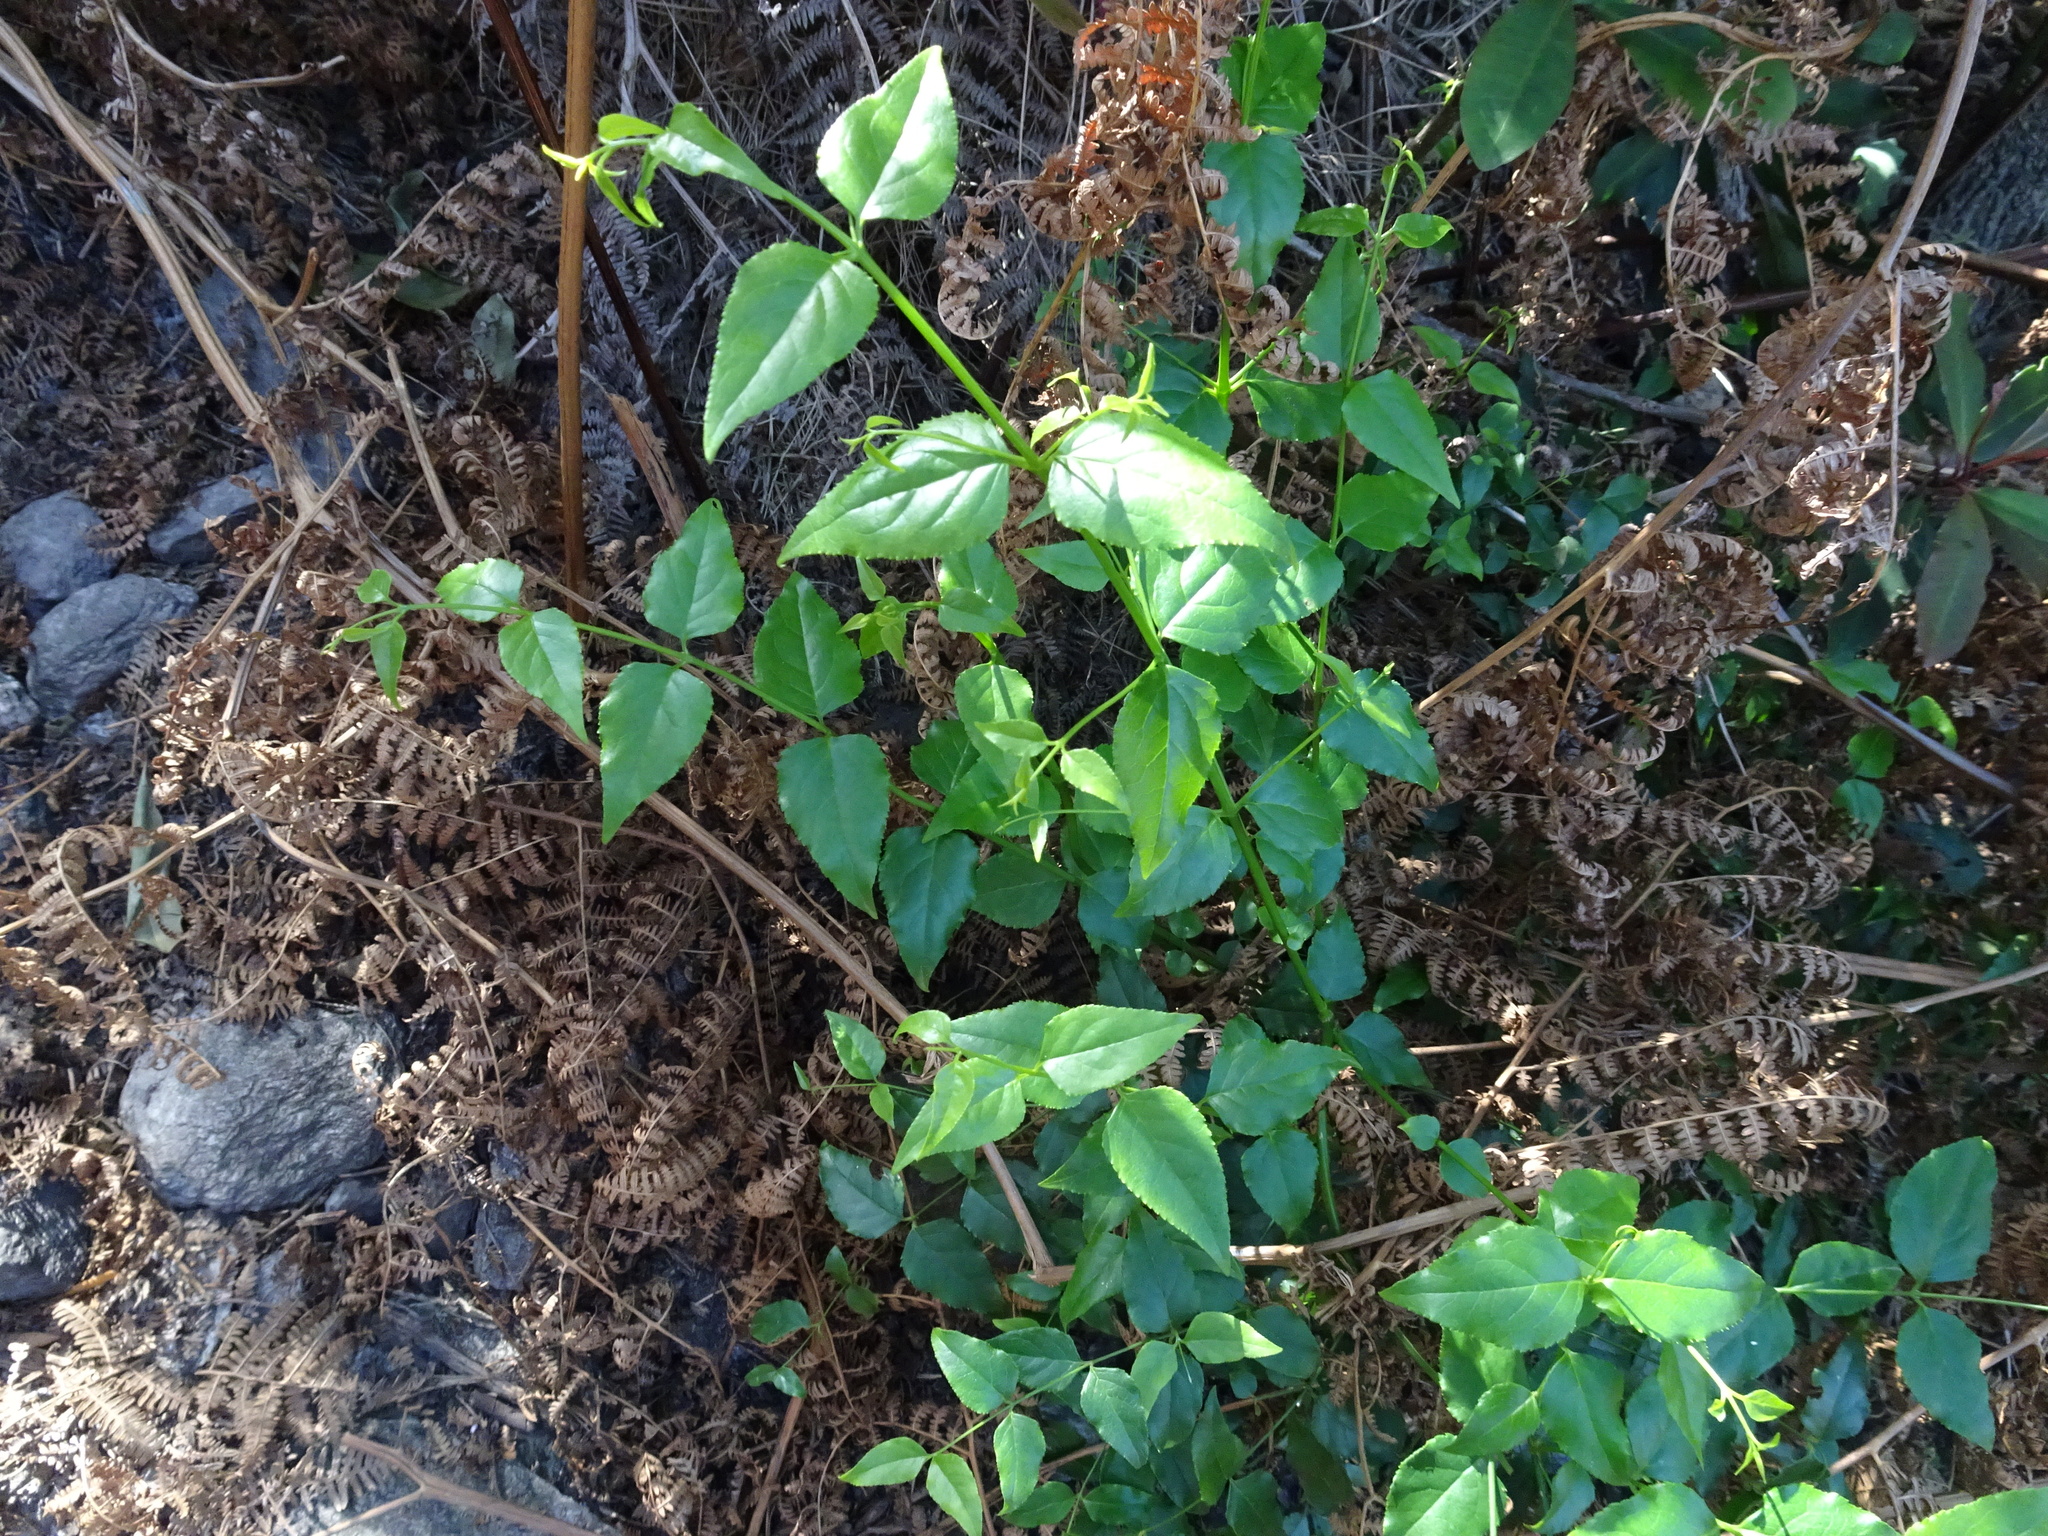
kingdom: Plantae
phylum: Tracheophyta
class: Magnoliopsida
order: Lamiales
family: Stilbaceae
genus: Halleria
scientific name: Halleria lucida
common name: Tree fuschia
